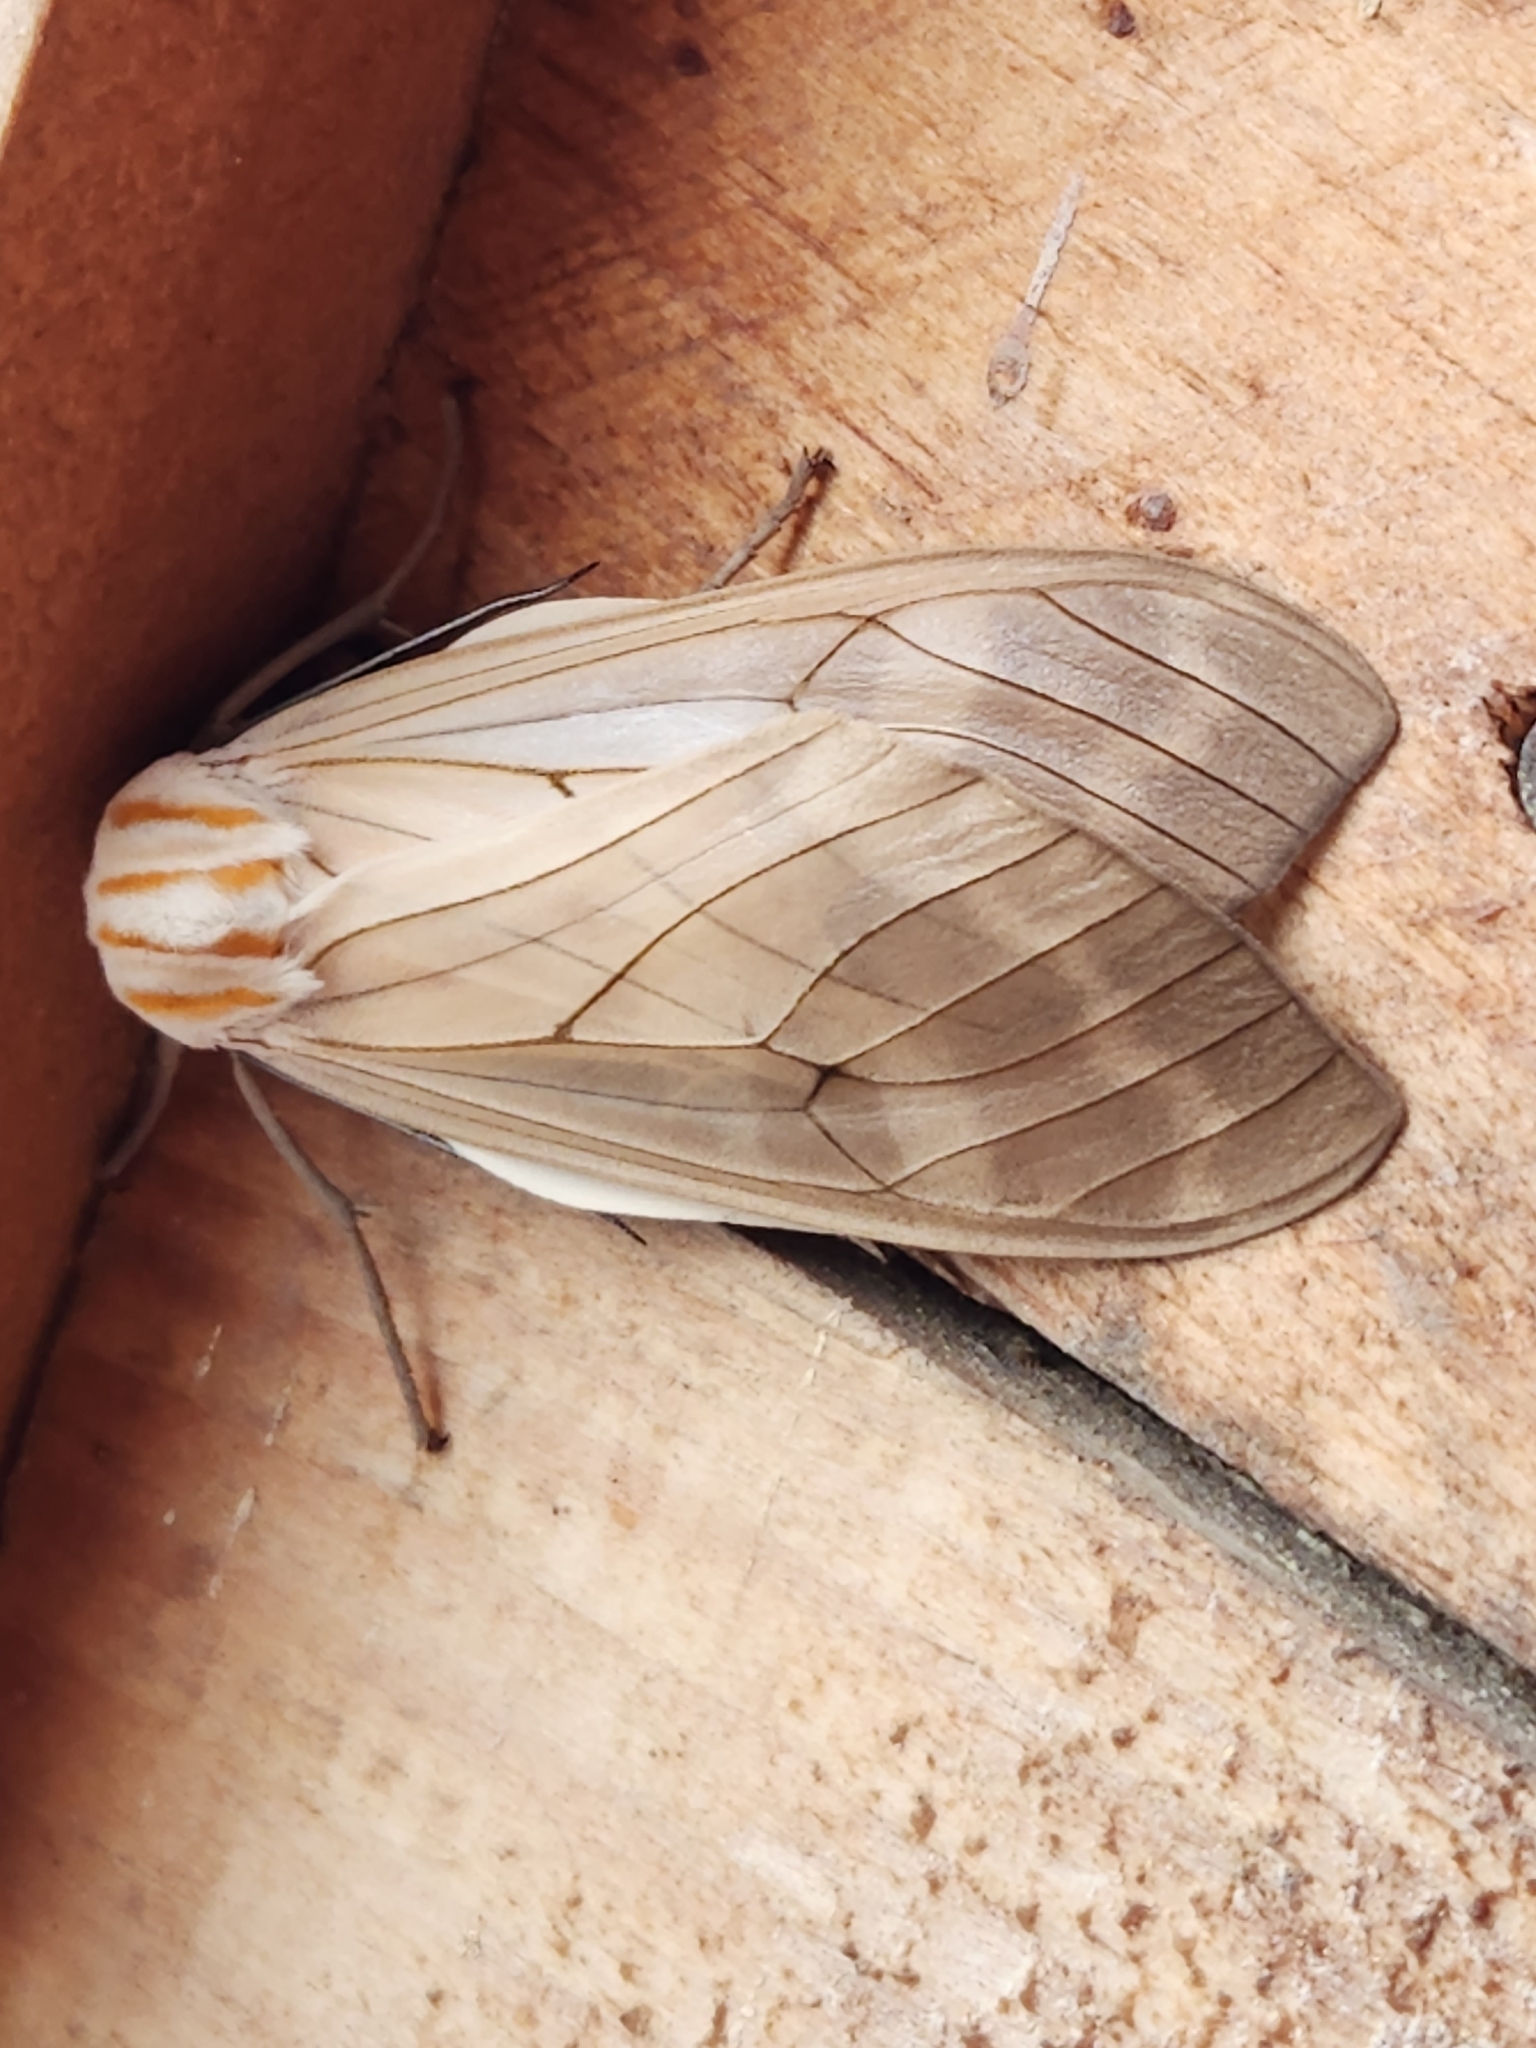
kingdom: Animalia
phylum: Arthropoda
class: Insecta
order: Lepidoptera
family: Erebidae
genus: Amastus
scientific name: Amastus aconia
